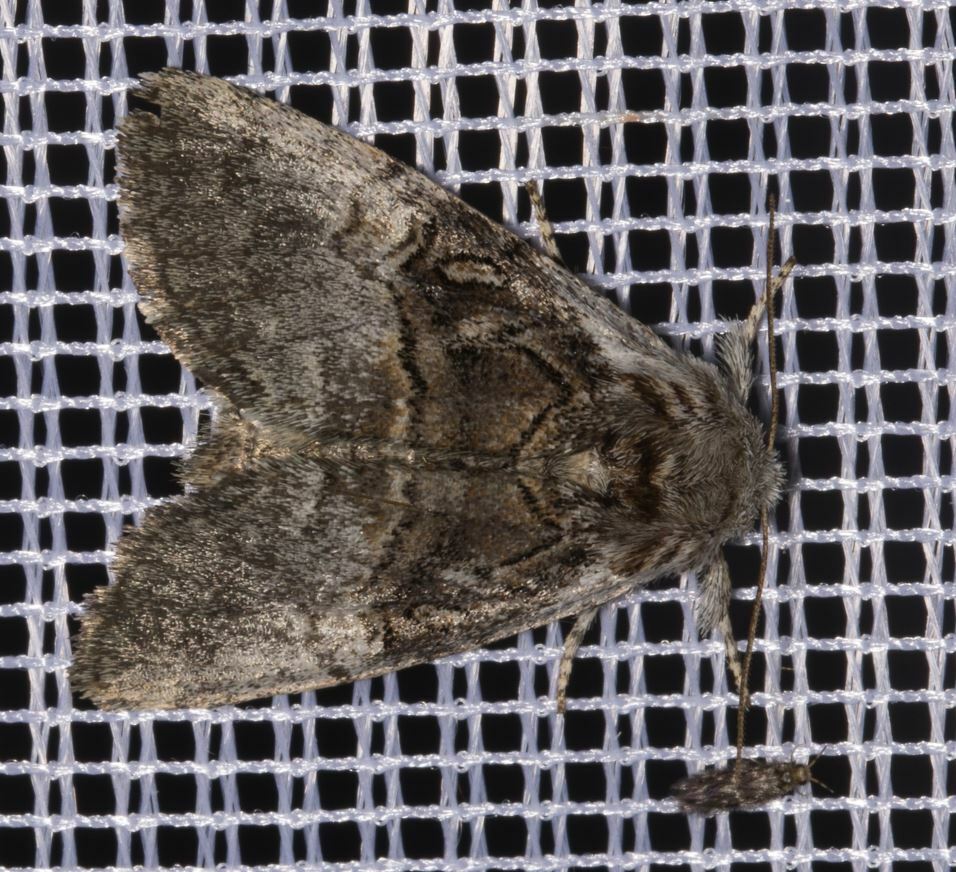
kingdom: Animalia
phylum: Arthropoda
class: Insecta
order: Lepidoptera
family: Noctuidae
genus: Colocasia
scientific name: Colocasia coryli
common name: Nut-tree tussock
